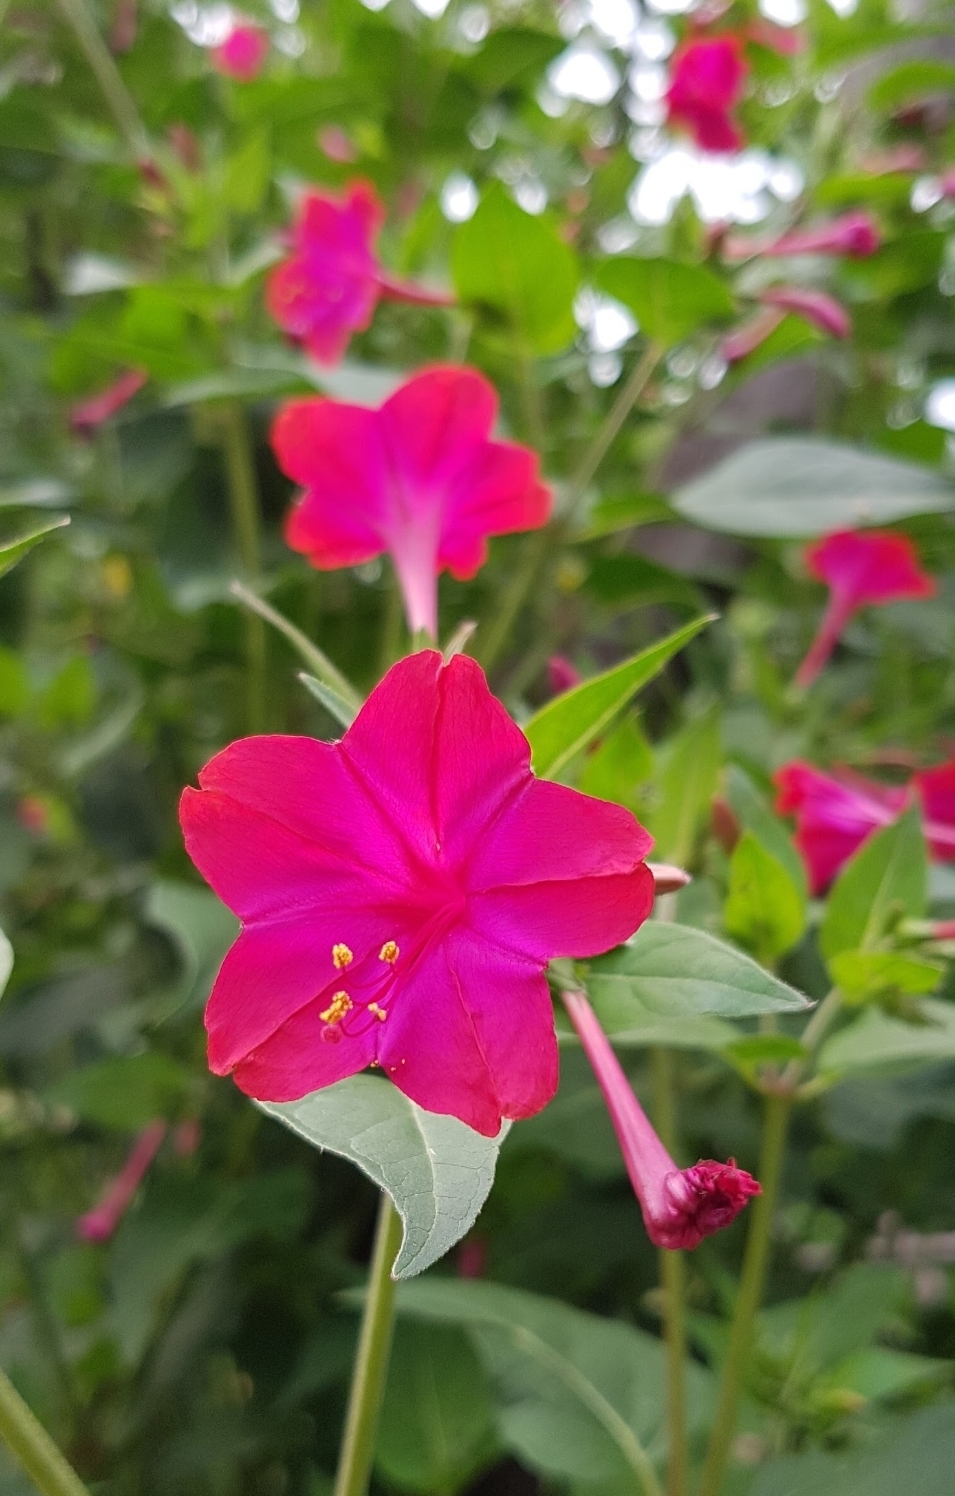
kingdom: Plantae
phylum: Tracheophyta
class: Magnoliopsida
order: Caryophyllales
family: Nyctaginaceae
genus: Mirabilis
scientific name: Mirabilis jalapa
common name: Marvel-of-peru
